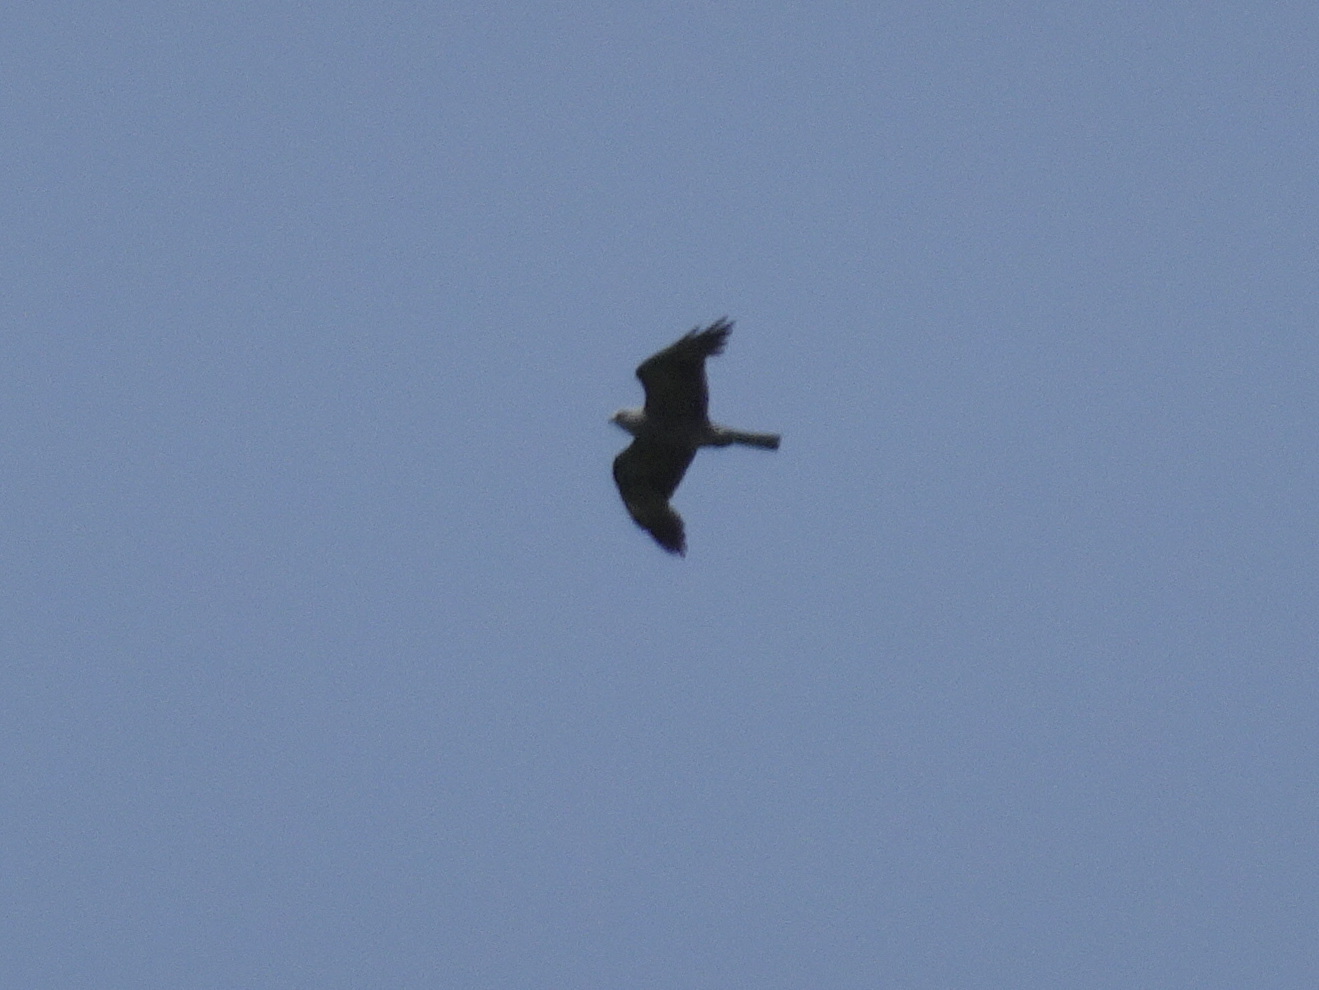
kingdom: Animalia
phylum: Chordata
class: Aves
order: Accipitriformes
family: Accipitridae
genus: Ictinia
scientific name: Ictinia mississippiensis
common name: Mississippi kite
